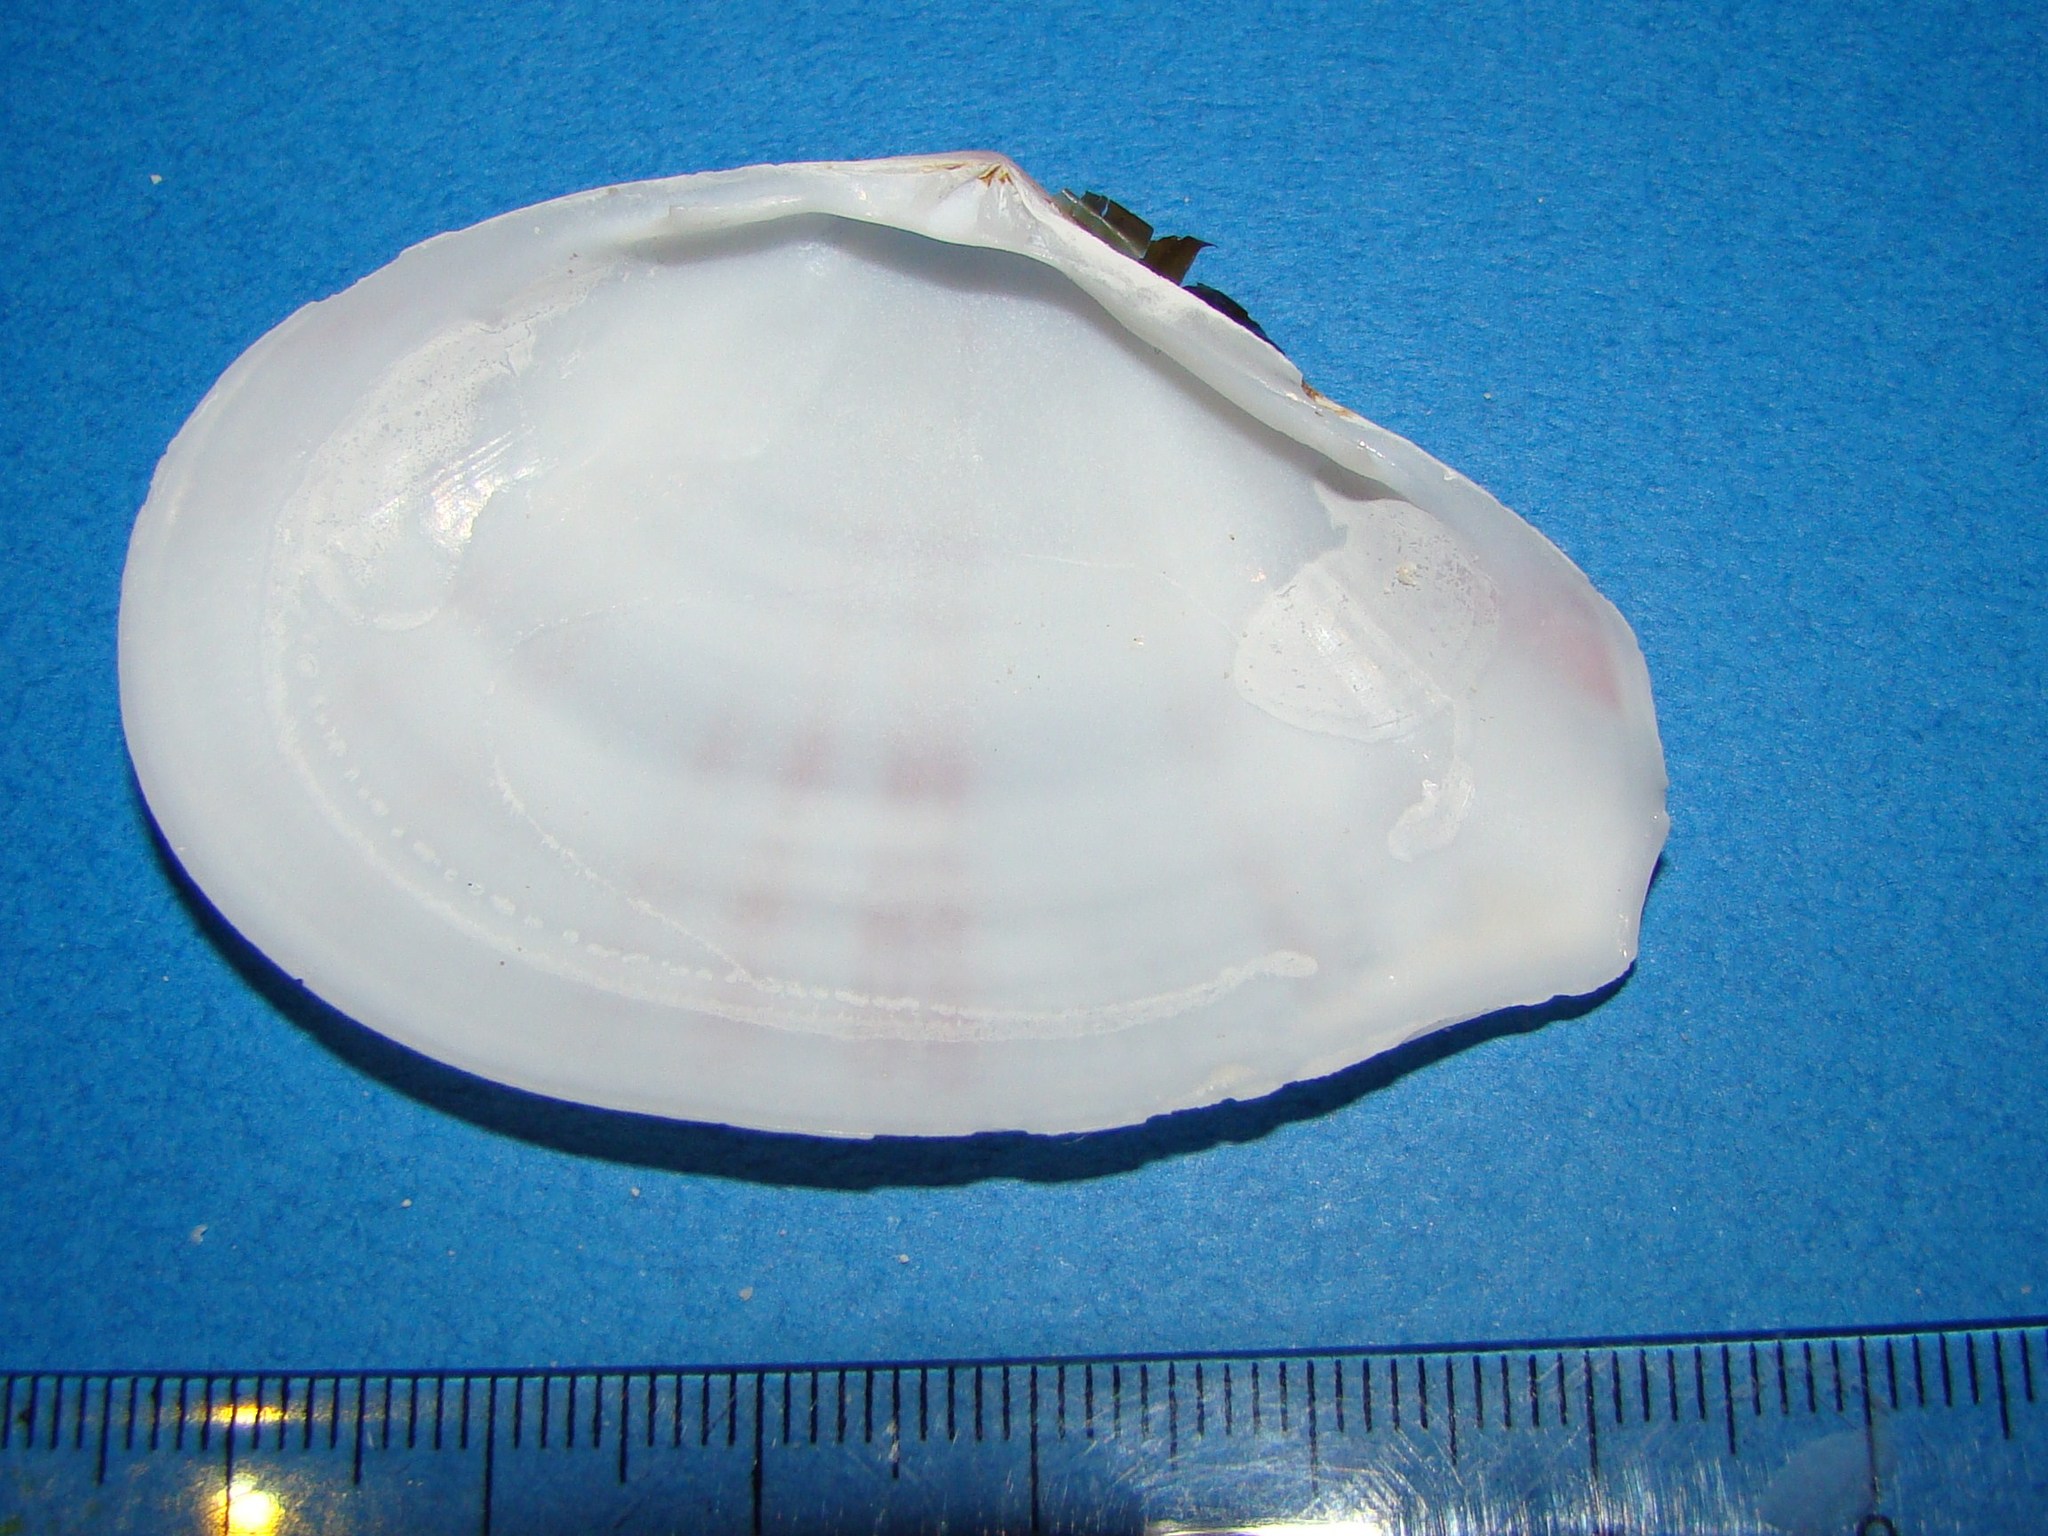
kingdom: Animalia
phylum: Mollusca
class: Bivalvia
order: Cardiida
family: Tellinidae
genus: Tellinella
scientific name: Tellinella cruciata
